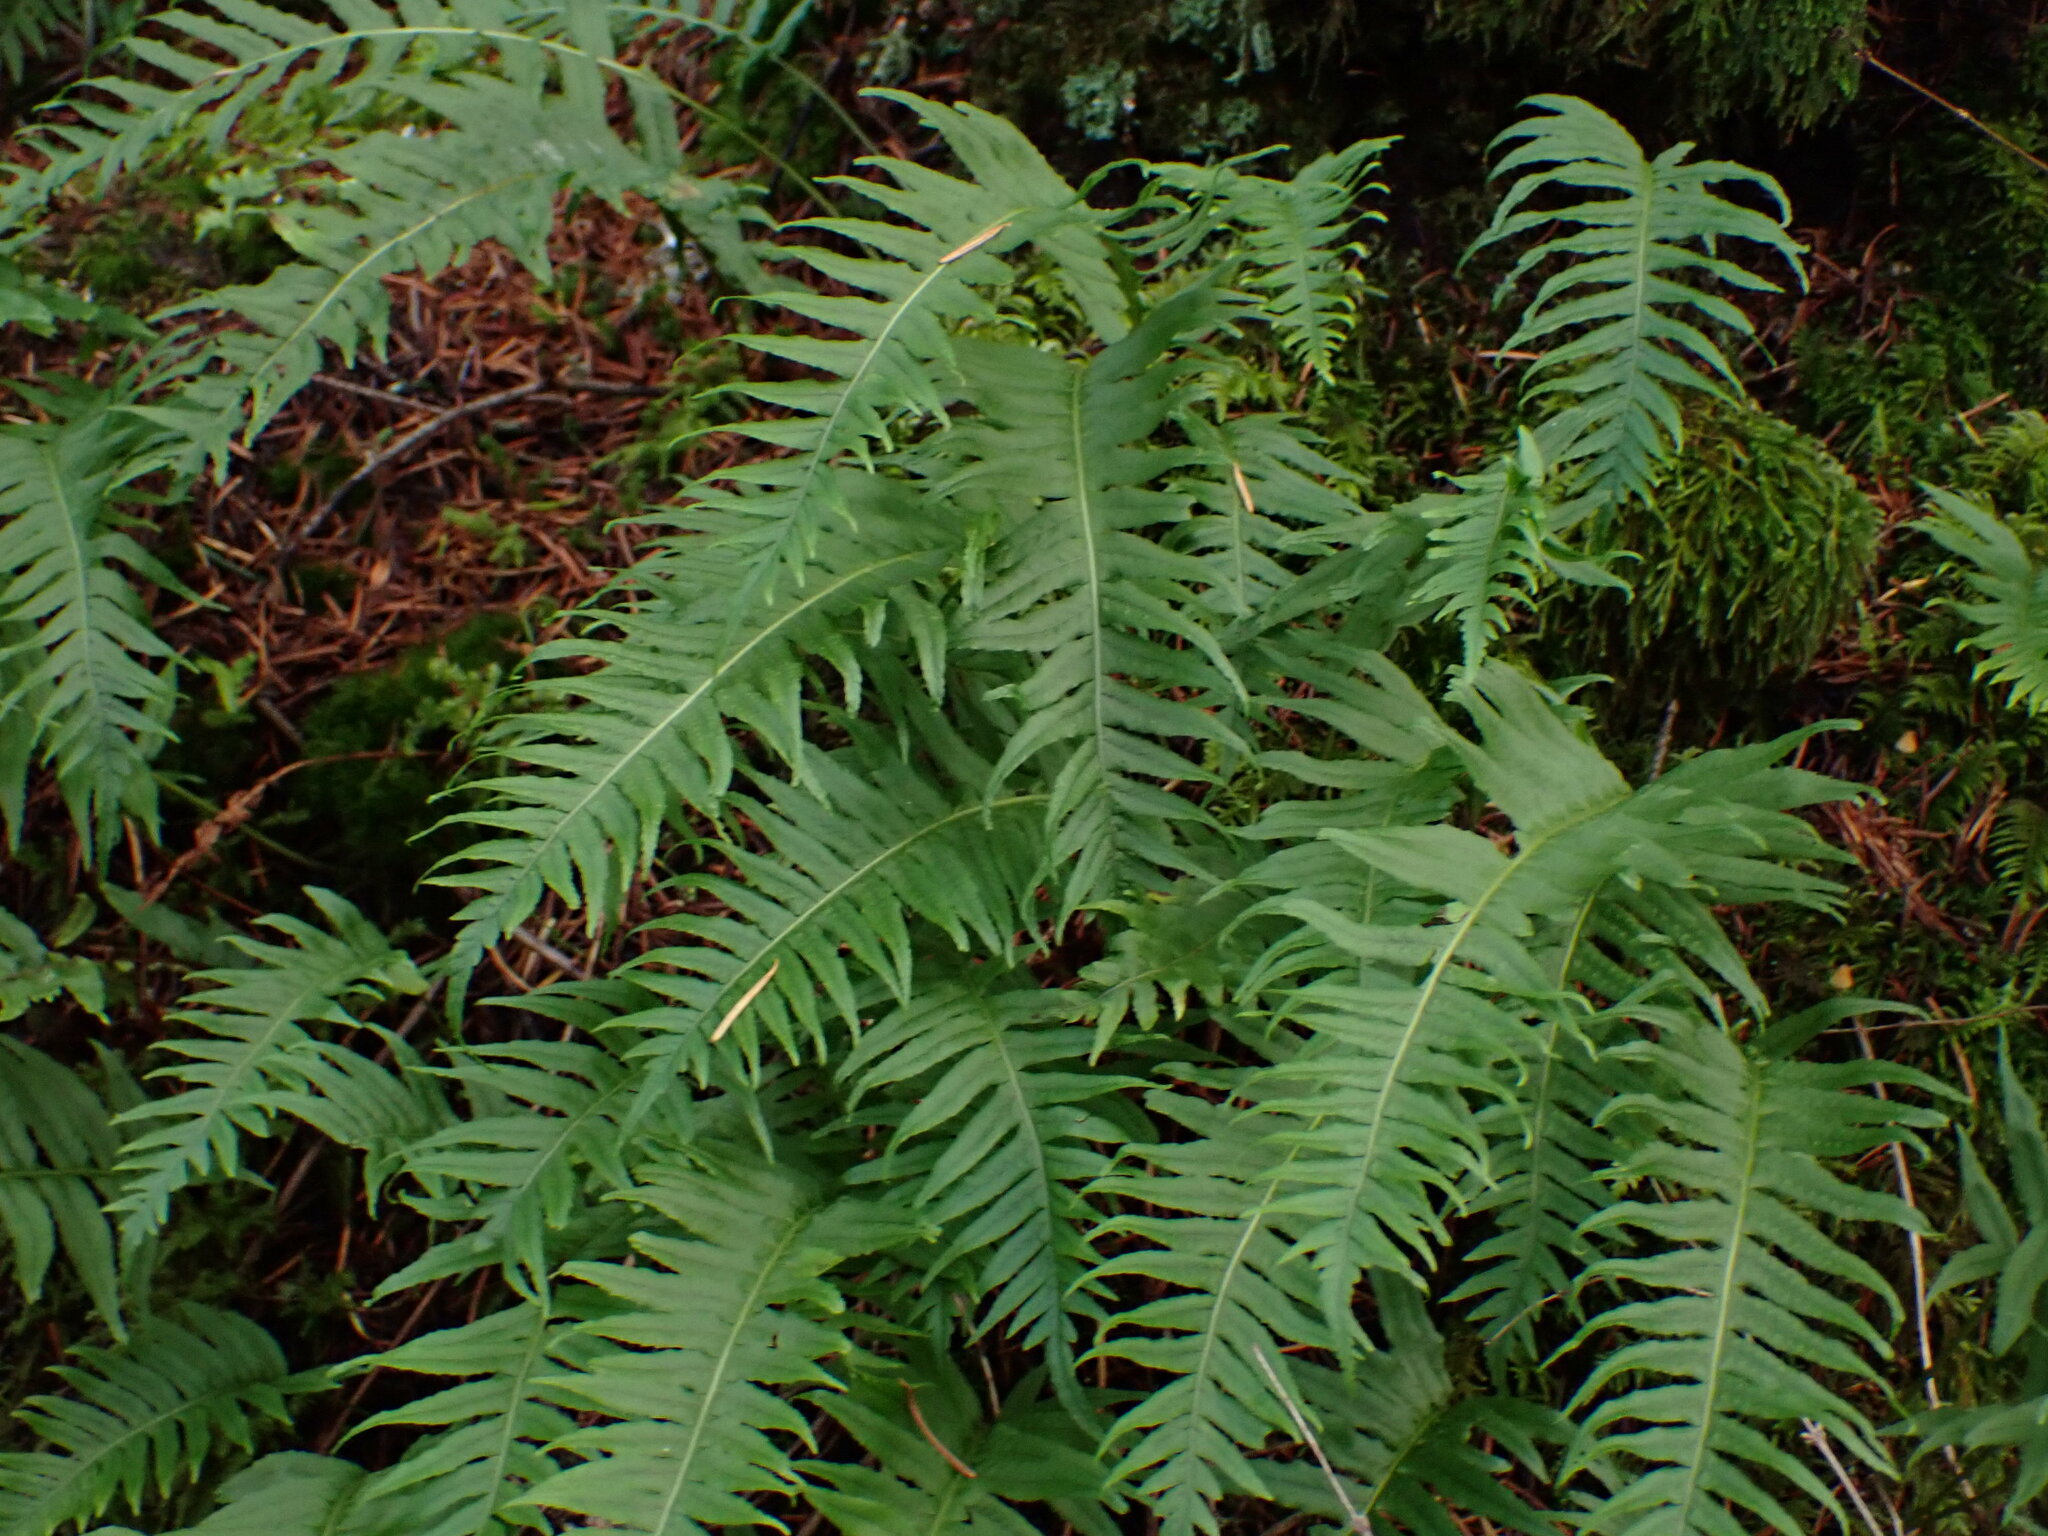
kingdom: Plantae
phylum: Tracheophyta
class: Polypodiopsida
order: Polypodiales
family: Polypodiaceae
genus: Polypodium
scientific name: Polypodium glycyrrhiza
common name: Licorice fern
